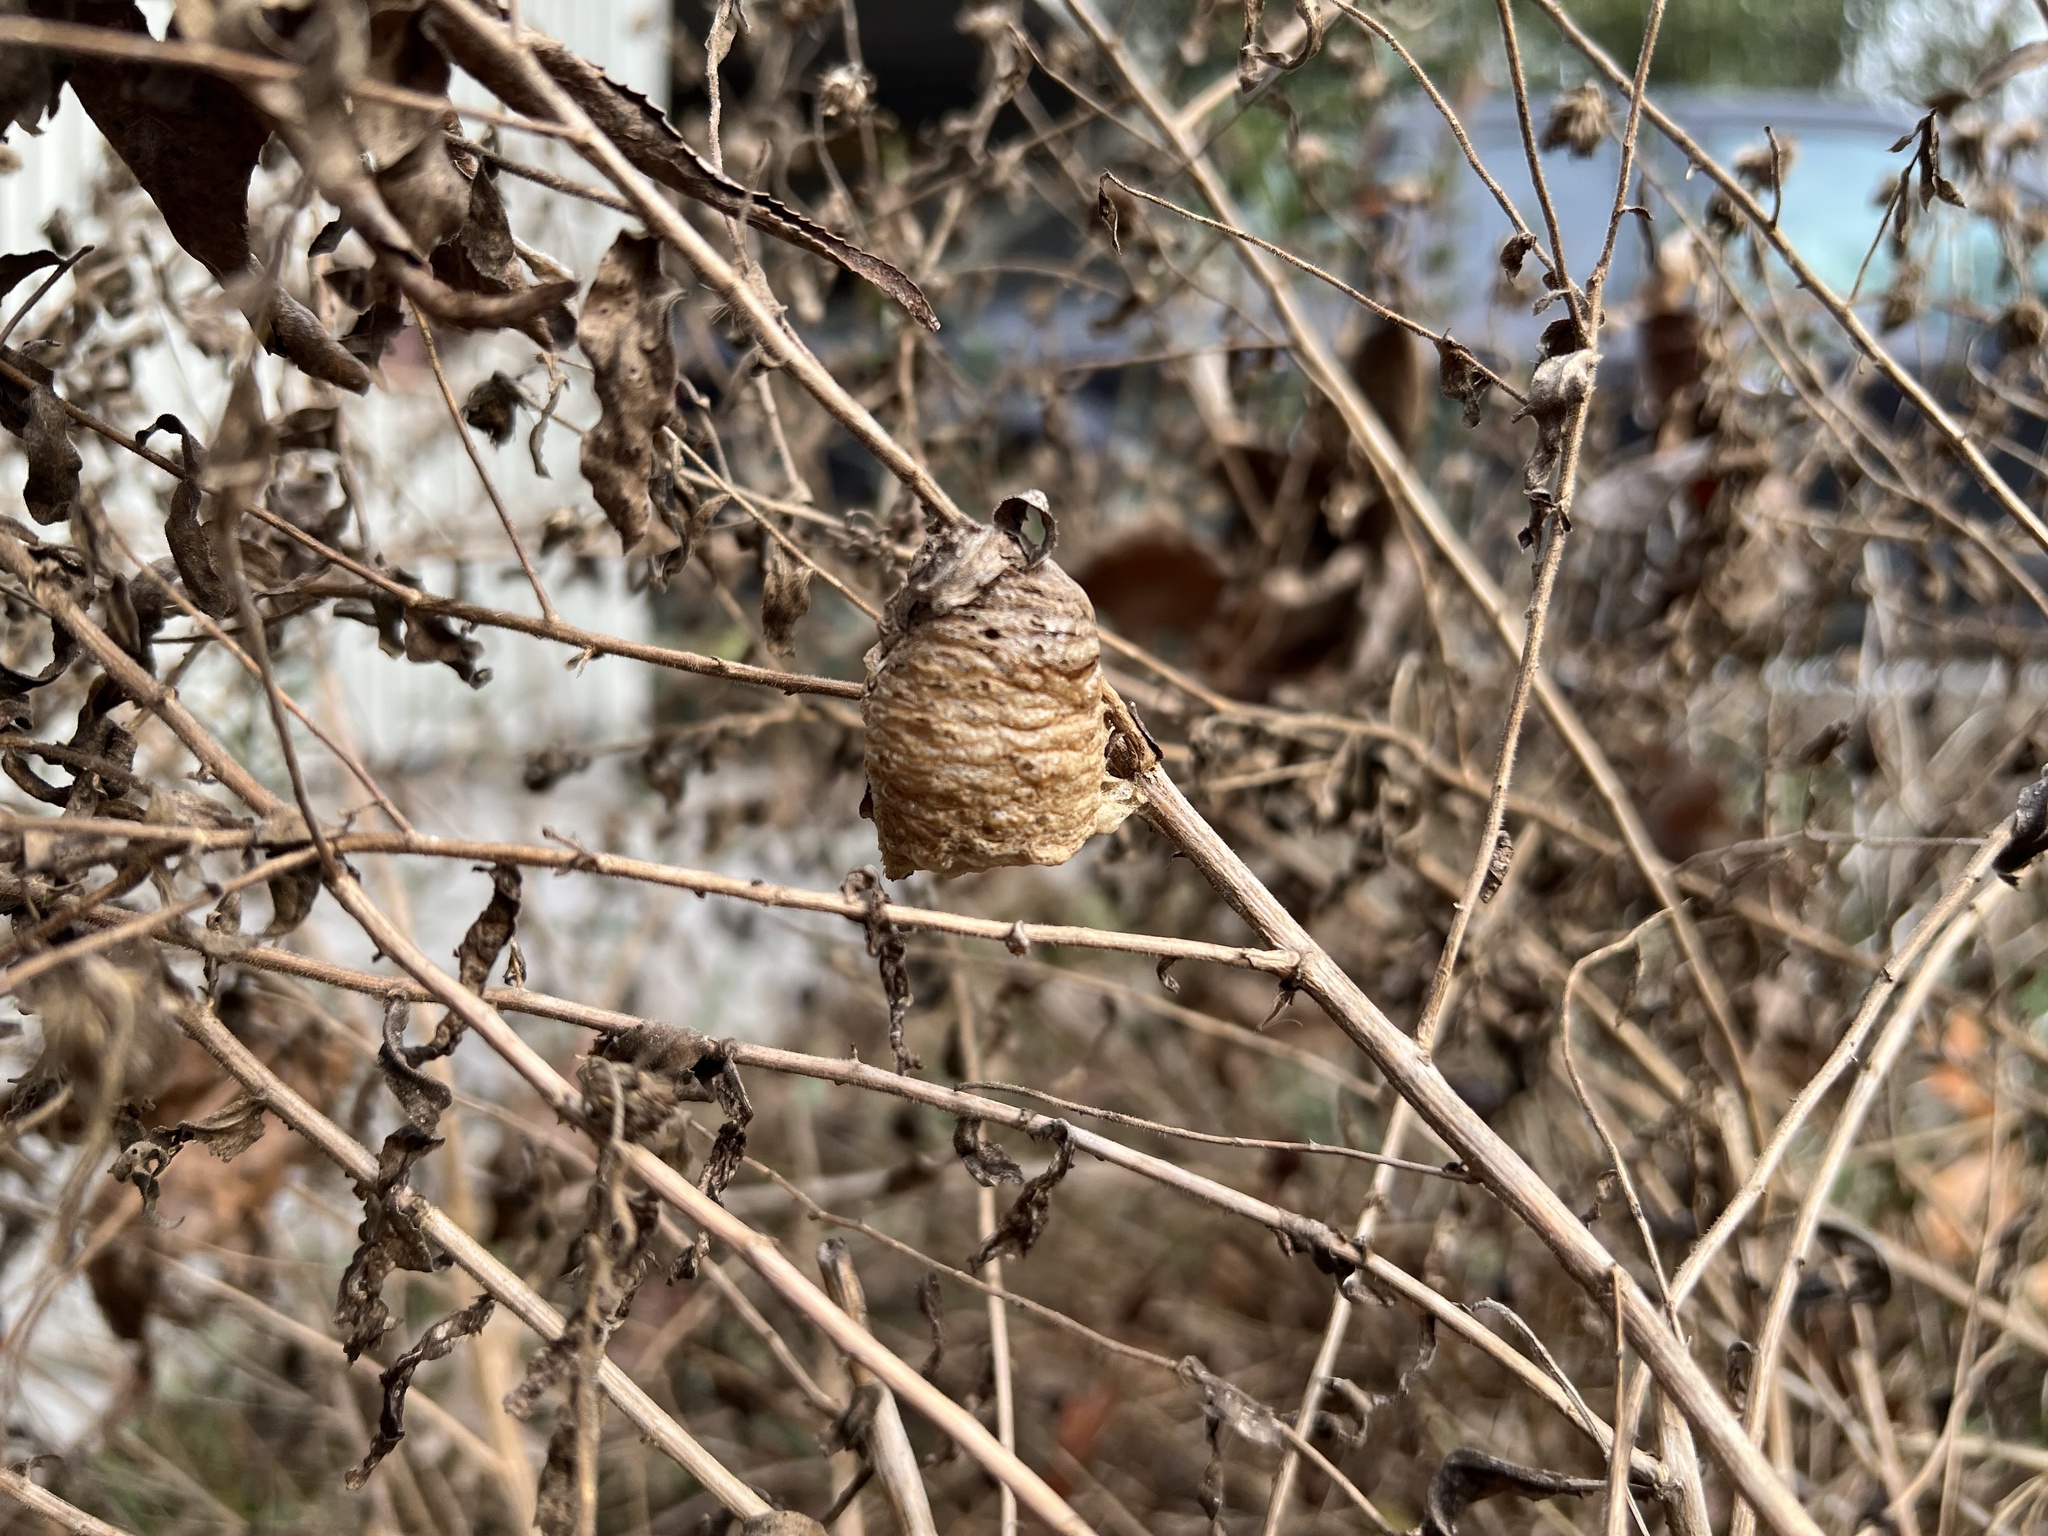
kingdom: Animalia
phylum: Arthropoda
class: Insecta
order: Mantodea
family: Mantidae
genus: Tenodera
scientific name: Tenodera sinensis
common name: Chinese mantis
